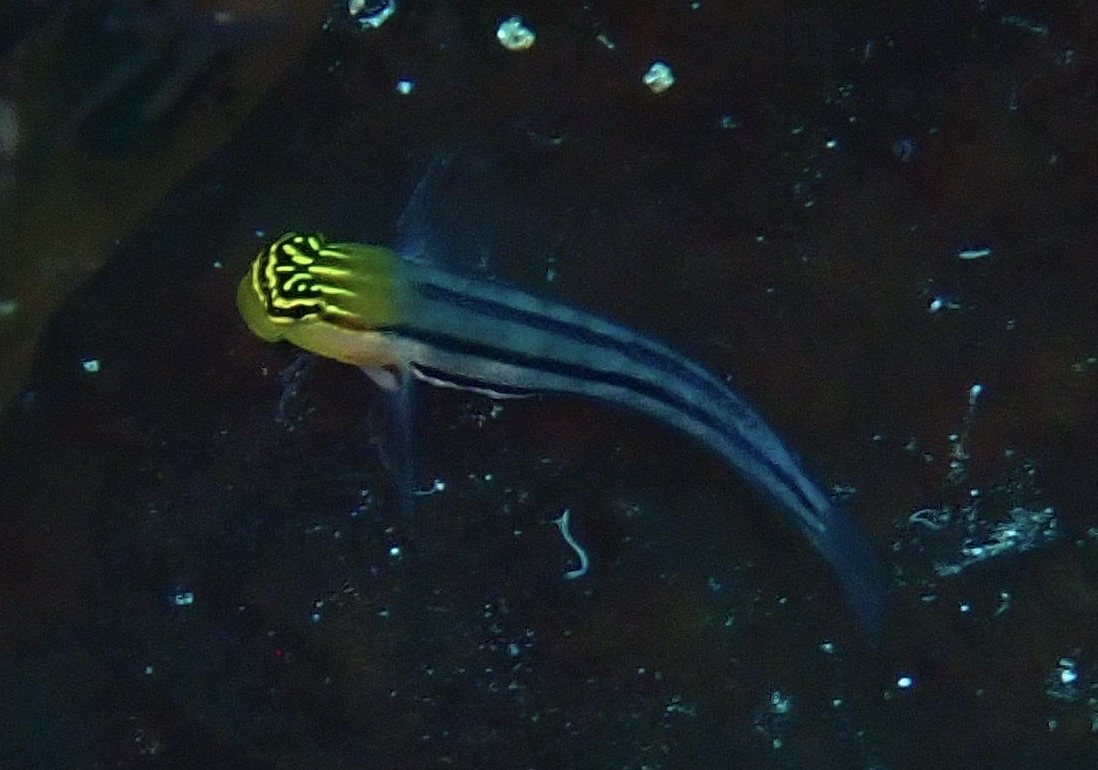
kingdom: Animalia
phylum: Chordata
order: Perciformes
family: Blenniidae
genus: Ecsenius
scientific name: Ecsenius bathi
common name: Bath's comb-tooth
